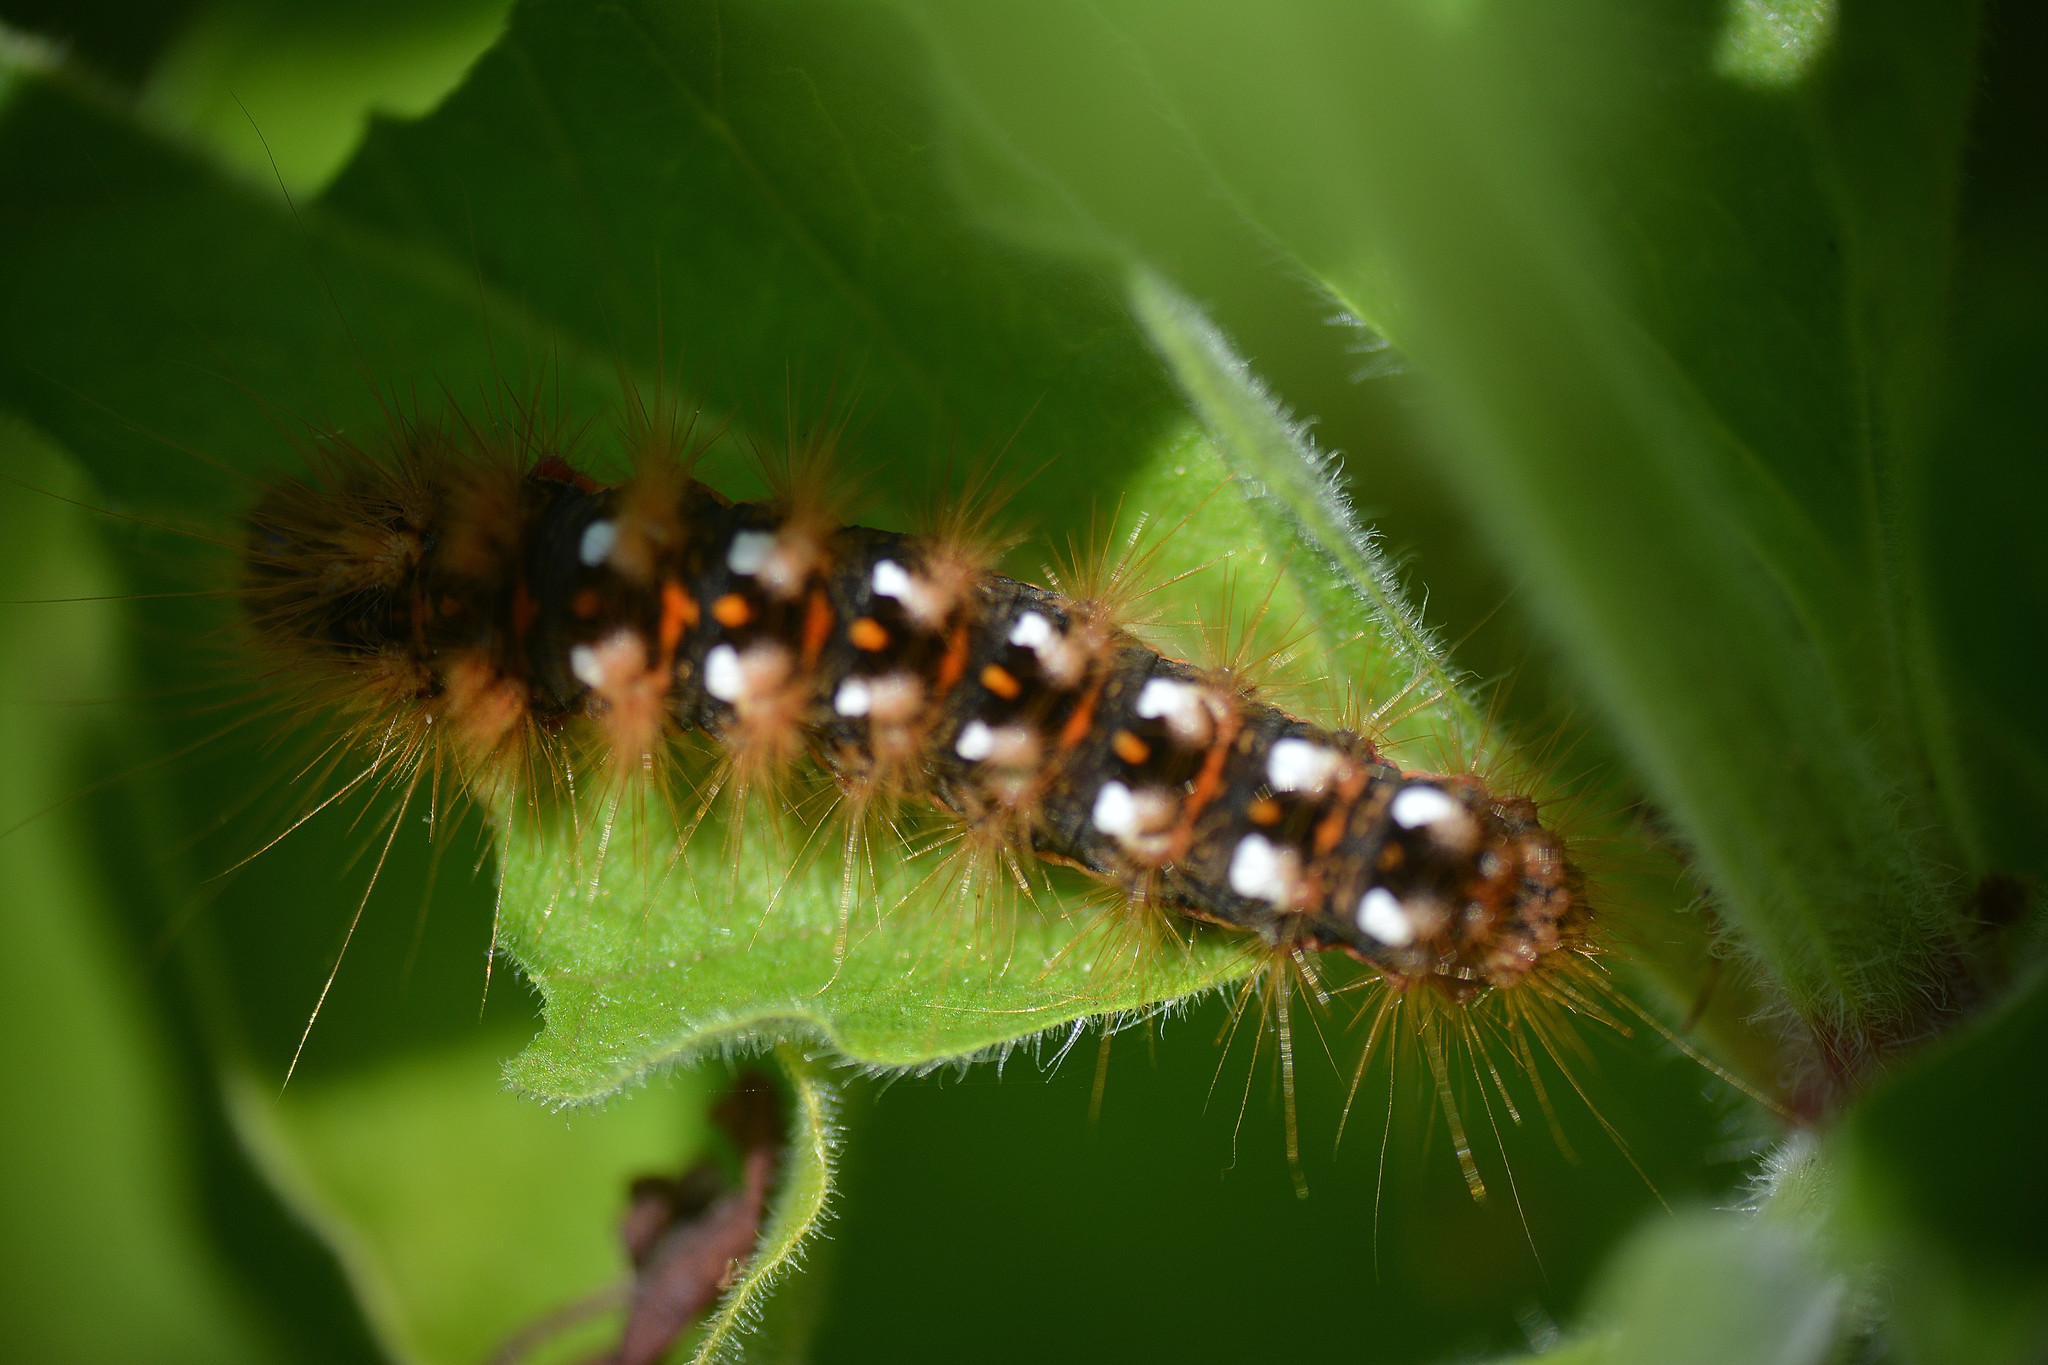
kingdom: Animalia
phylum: Arthropoda
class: Insecta
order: Lepidoptera
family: Noctuidae
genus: Acronicta
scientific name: Acronicta rumicis
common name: Knot grass
